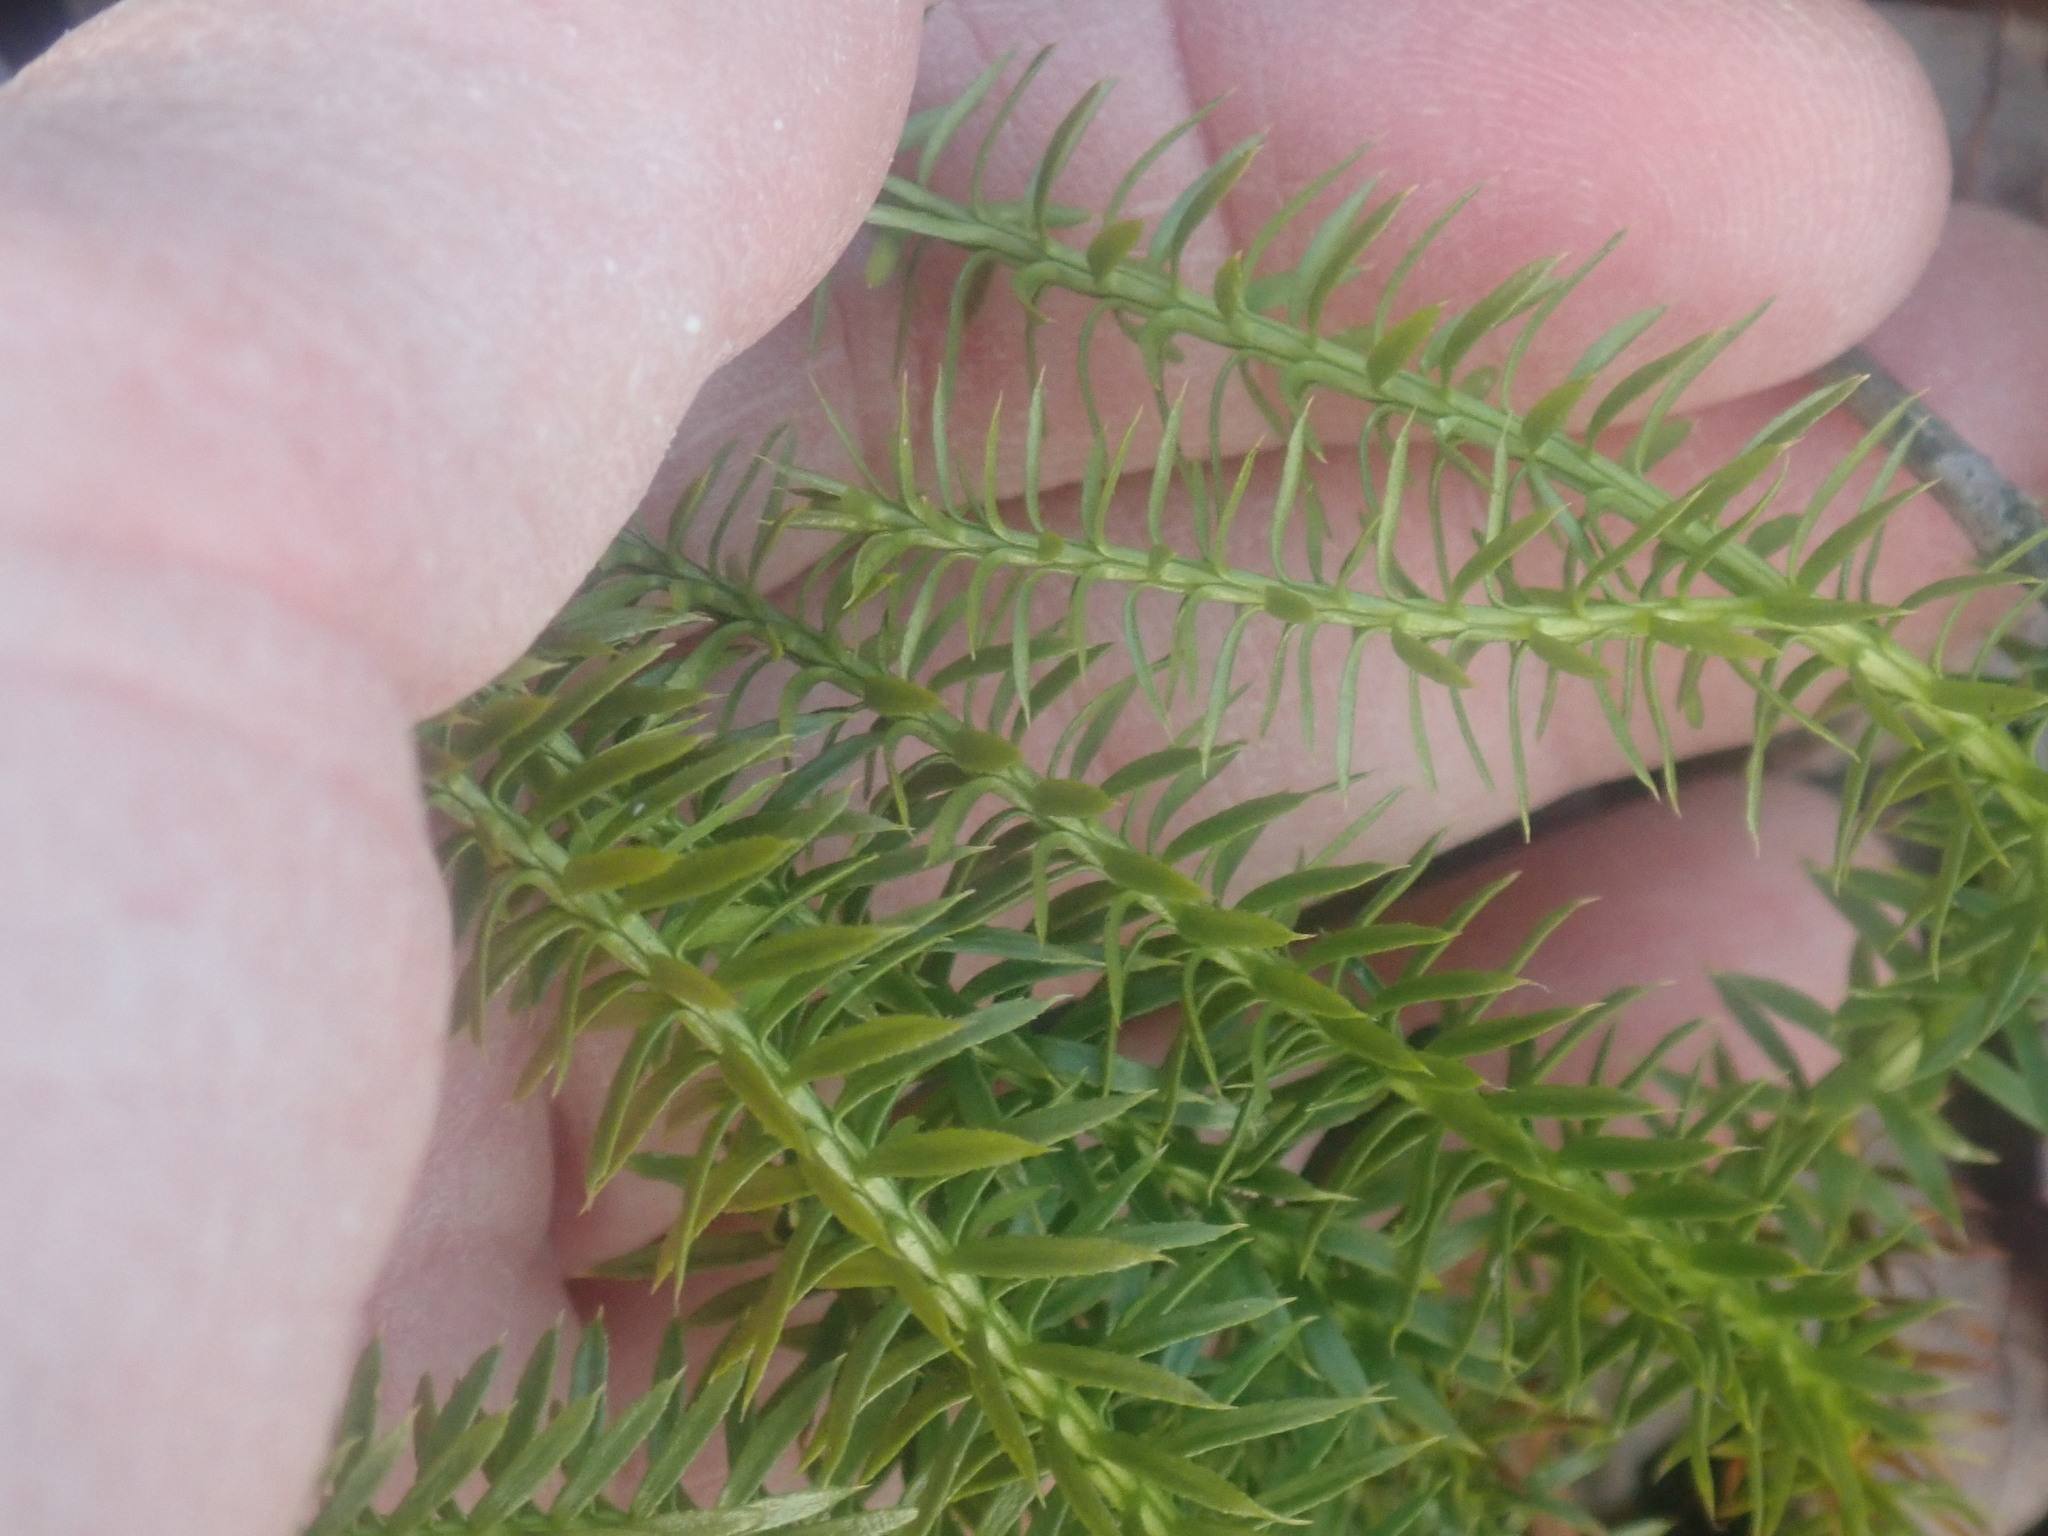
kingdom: Plantae
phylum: Tracheophyta
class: Lycopodiopsida
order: Lycopodiales
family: Lycopodiaceae
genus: Spinulum
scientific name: Spinulum annotinum
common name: Interrupted club-moss
